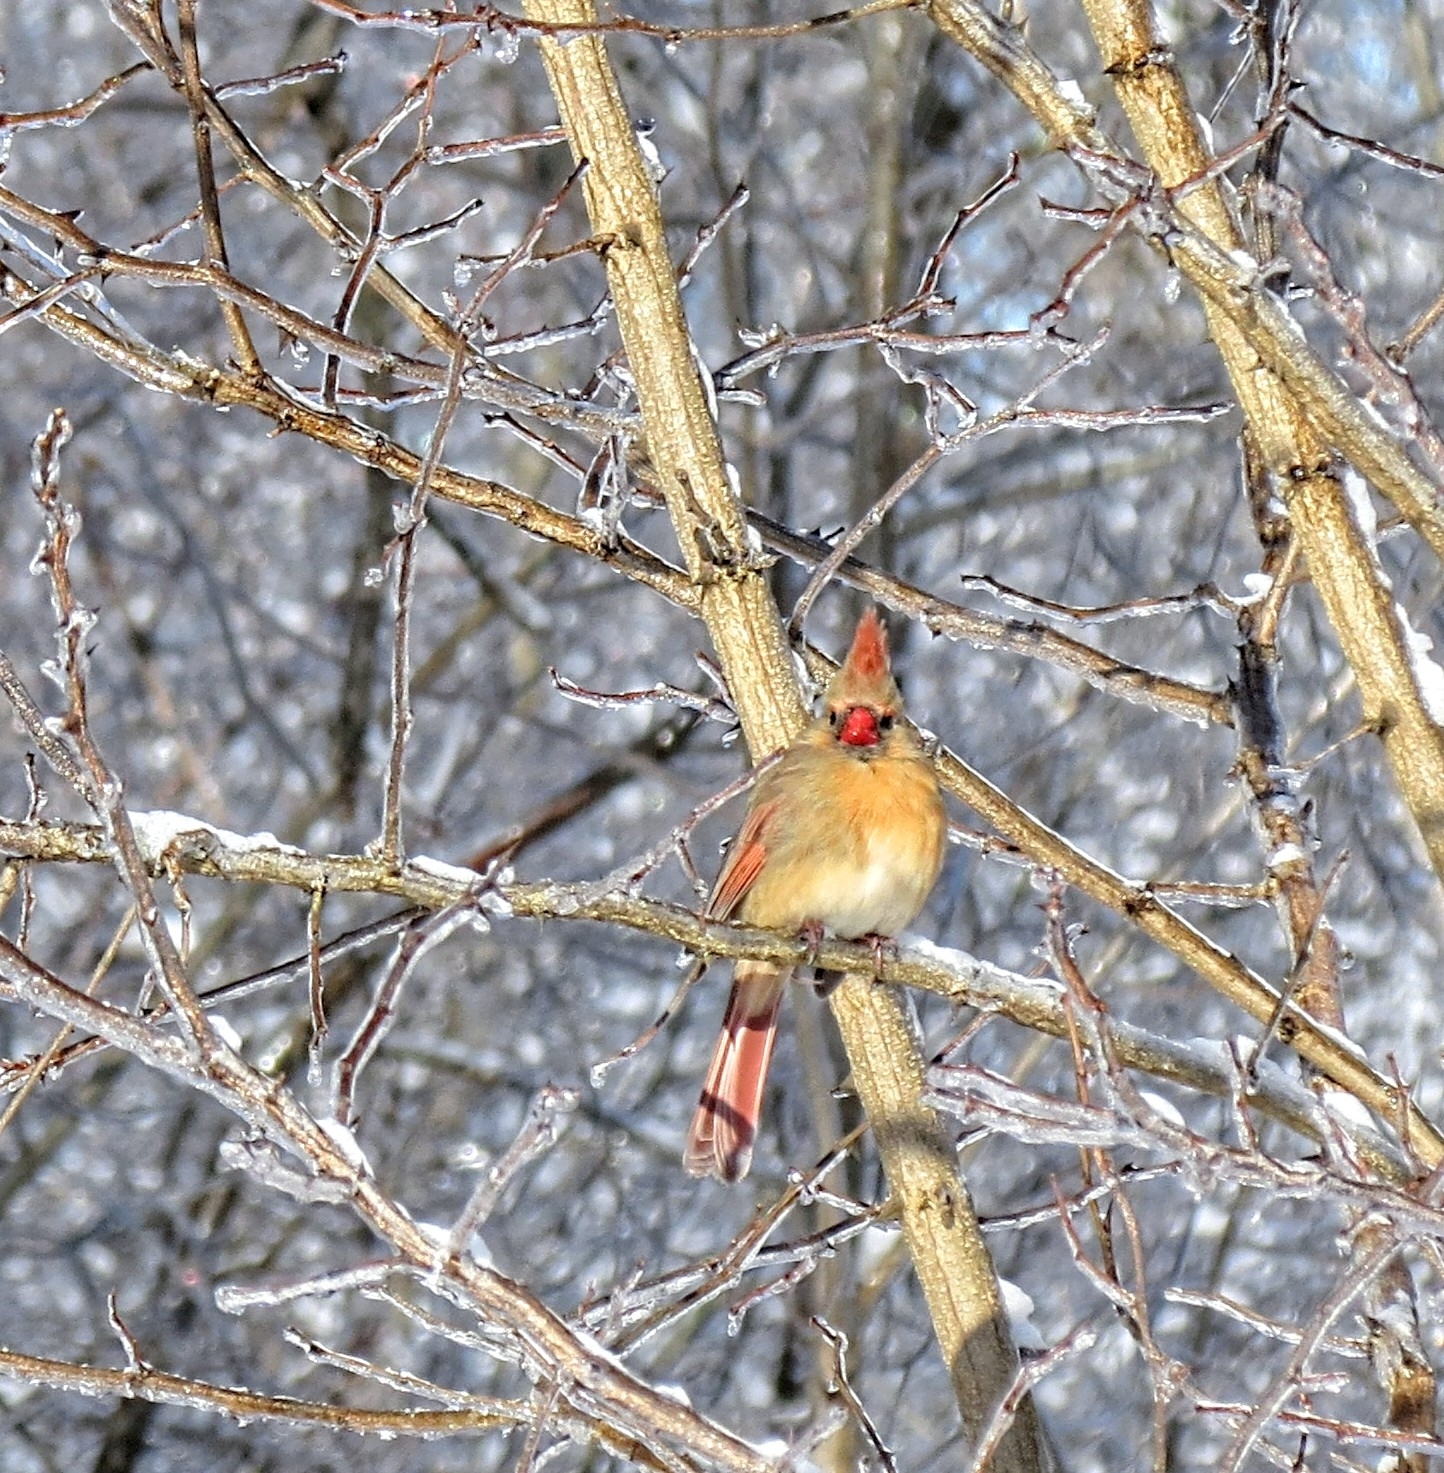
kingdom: Animalia
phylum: Chordata
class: Aves
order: Passeriformes
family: Cardinalidae
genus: Cardinalis
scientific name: Cardinalis cardinalis
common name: Northern cardinal
